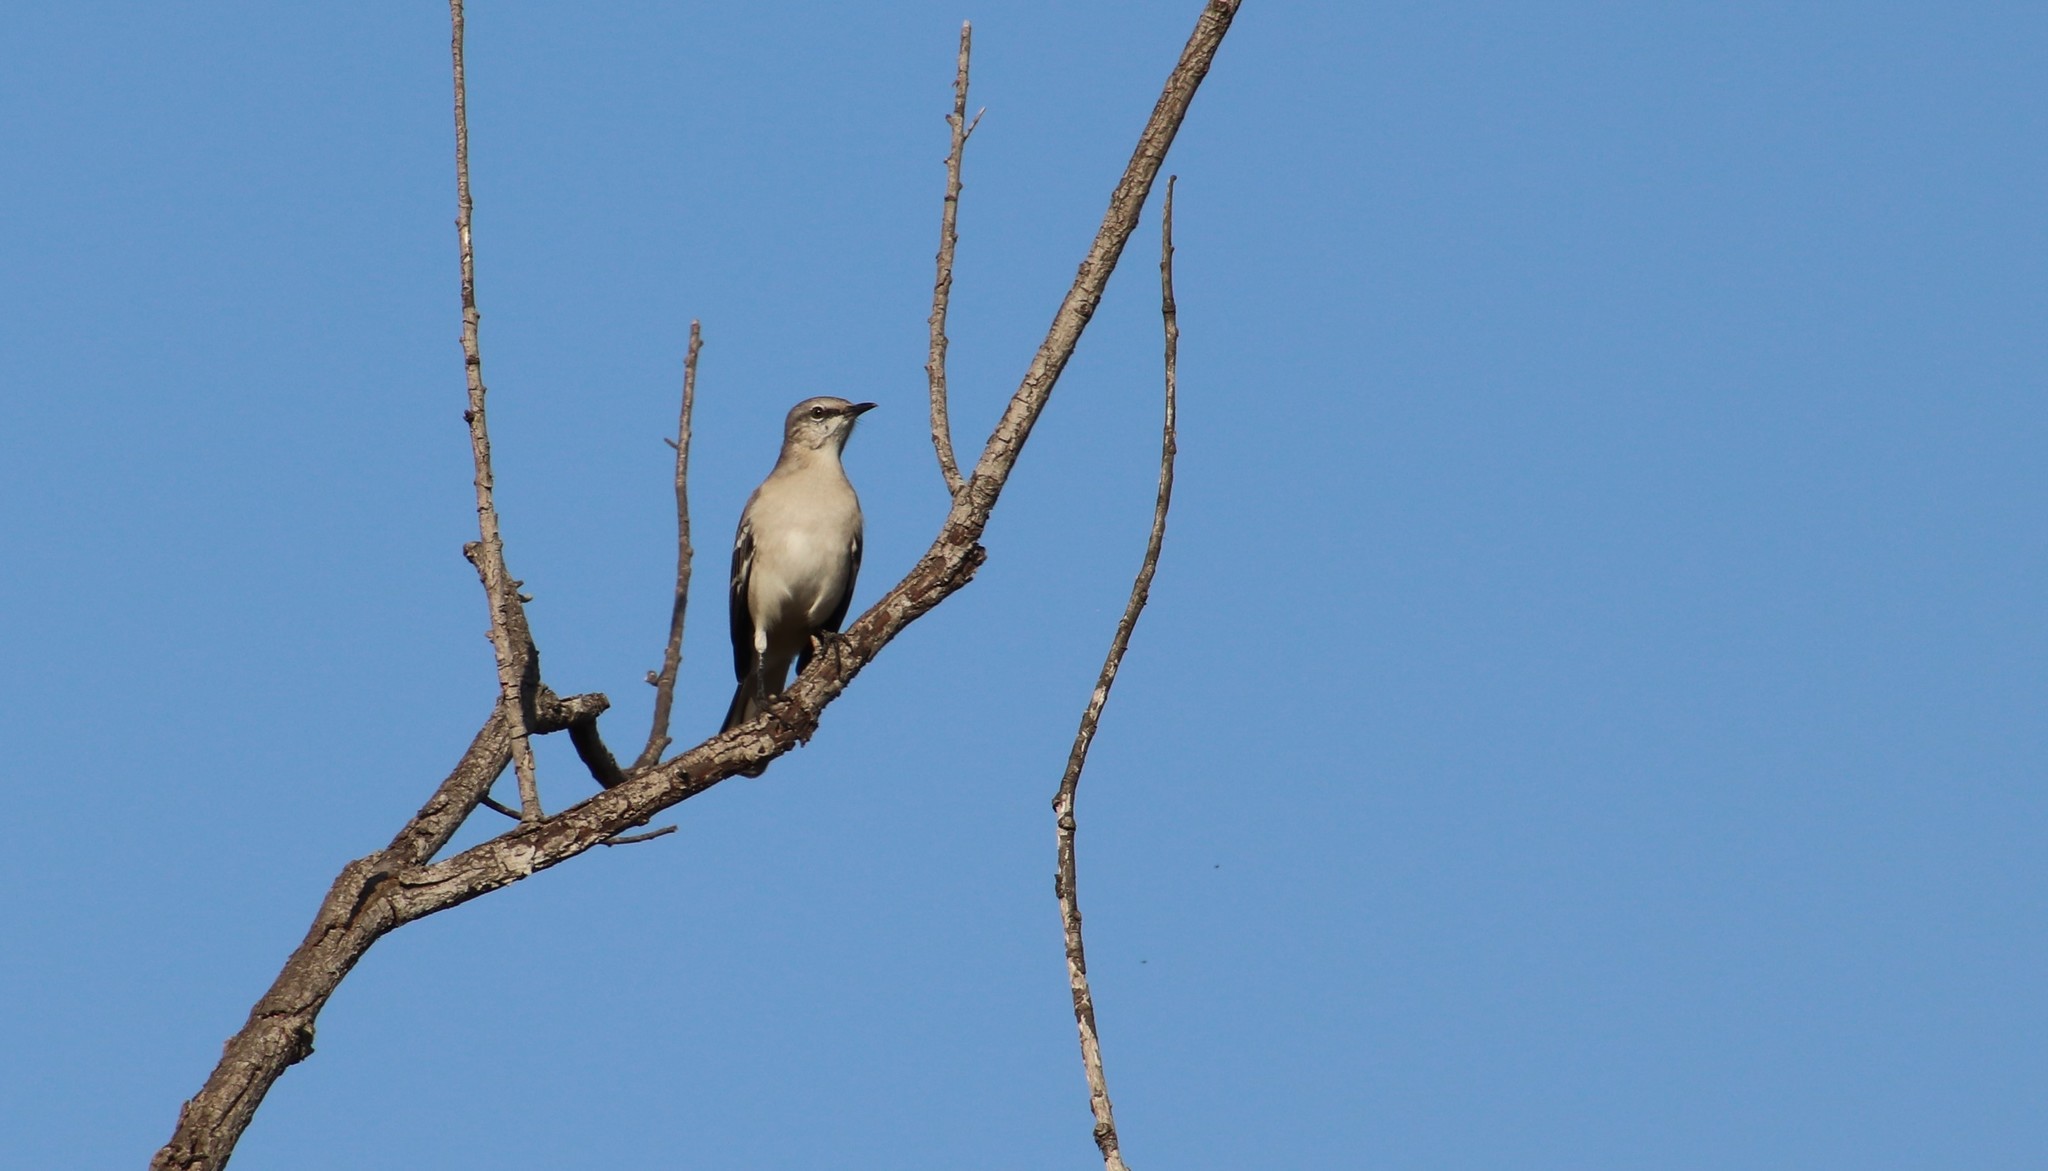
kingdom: Animalia
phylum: Chordata
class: Aves
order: Passeriformes
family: Mimidae
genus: Mimus
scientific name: Mimus polyglottos
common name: Northern mockingbird
